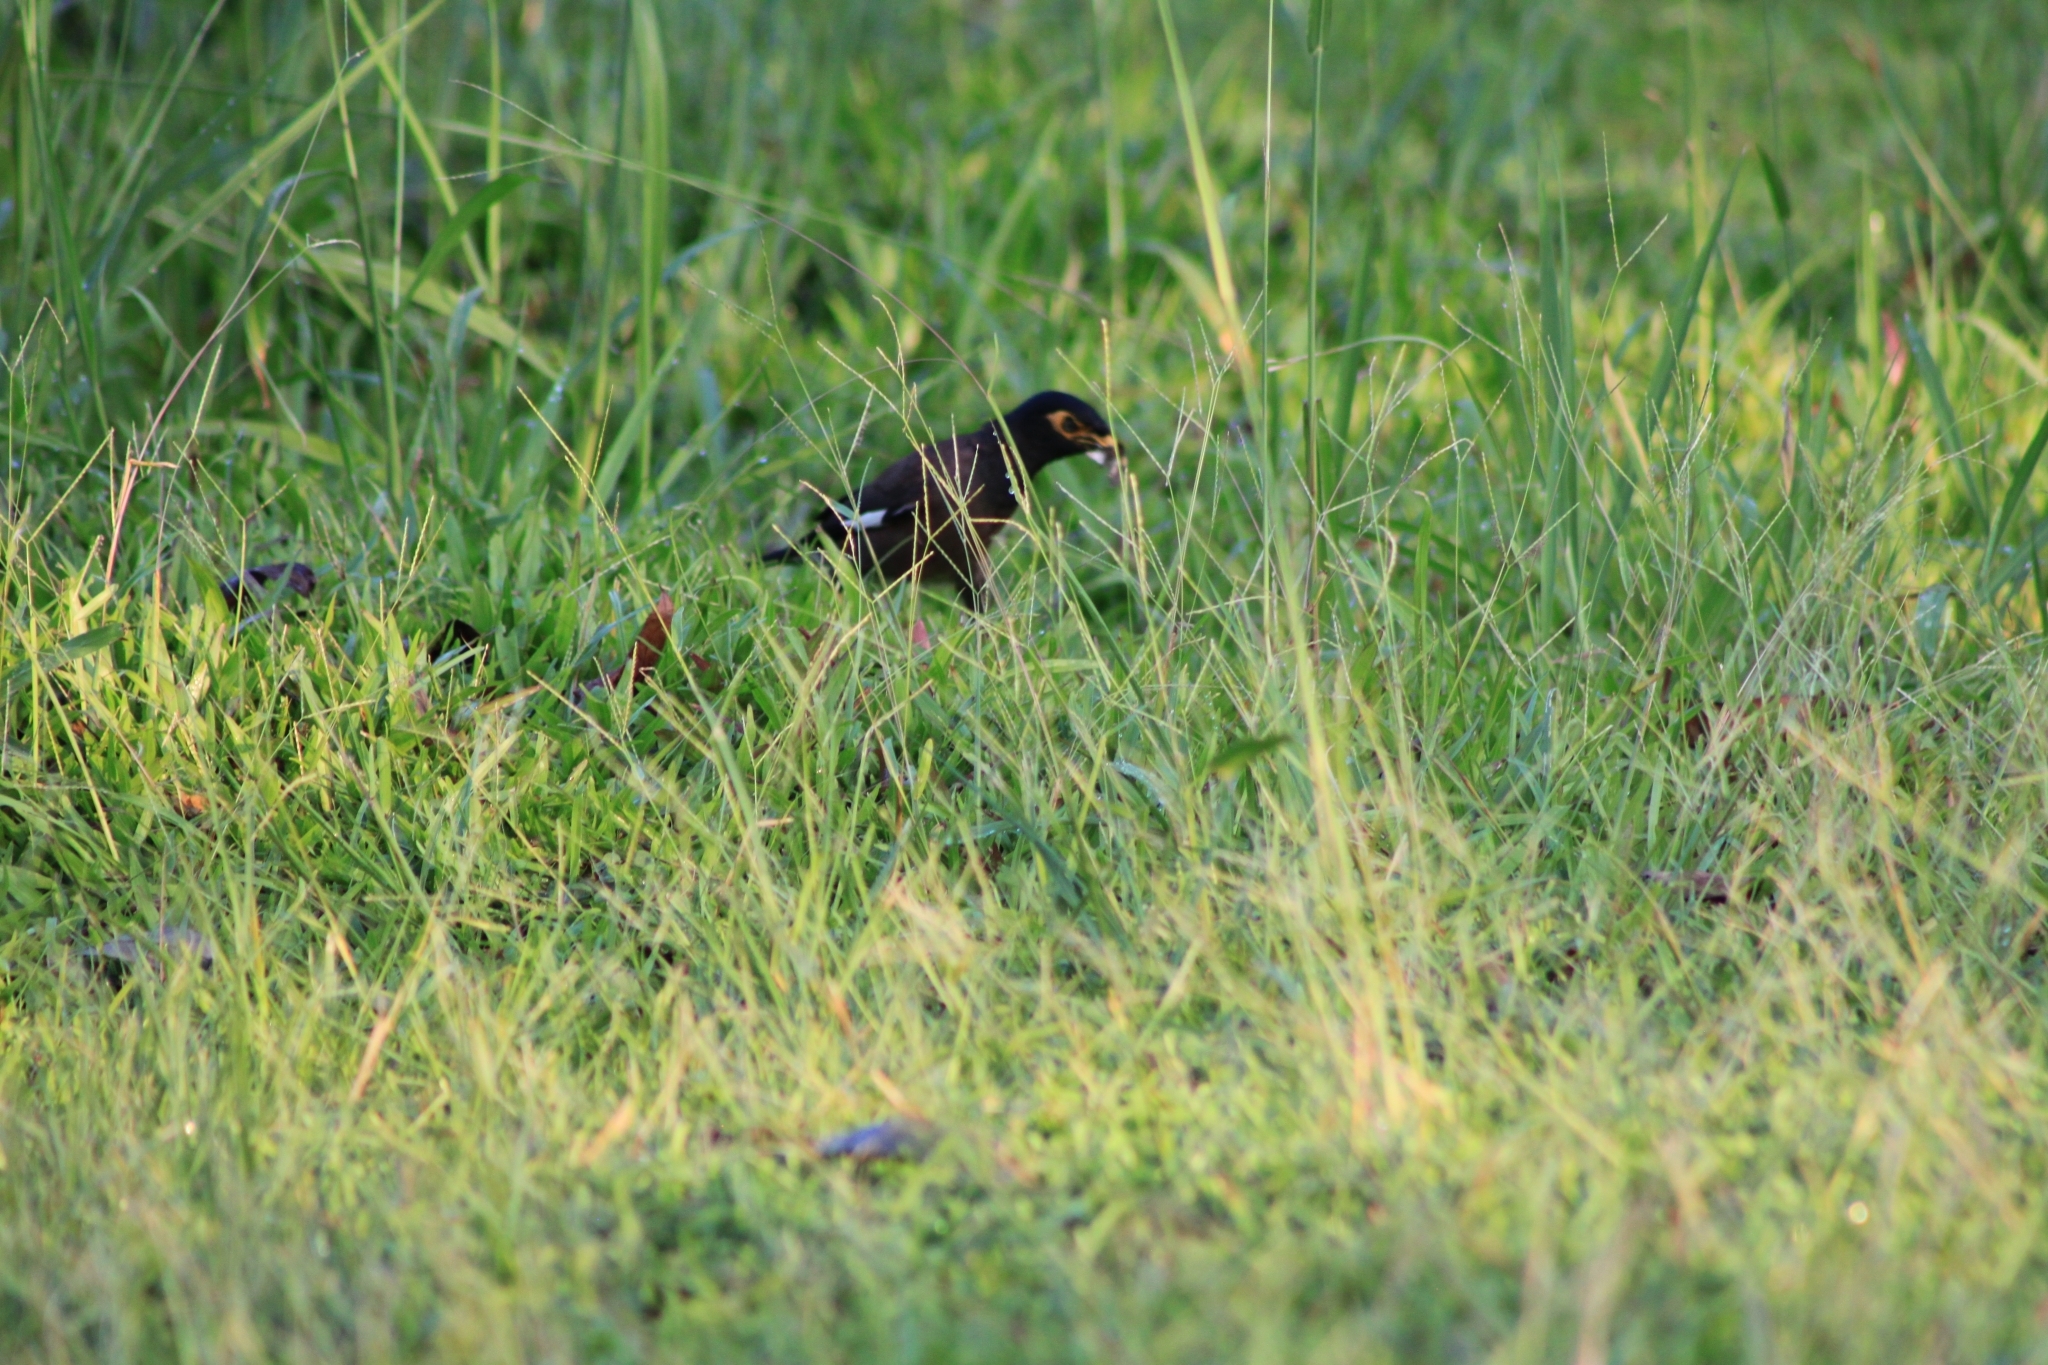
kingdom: Animalia
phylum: Chordata
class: Aves
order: Passeriformes
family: Sturnidae
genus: Acridotheres
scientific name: Acridotheres tristis
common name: Common myna
